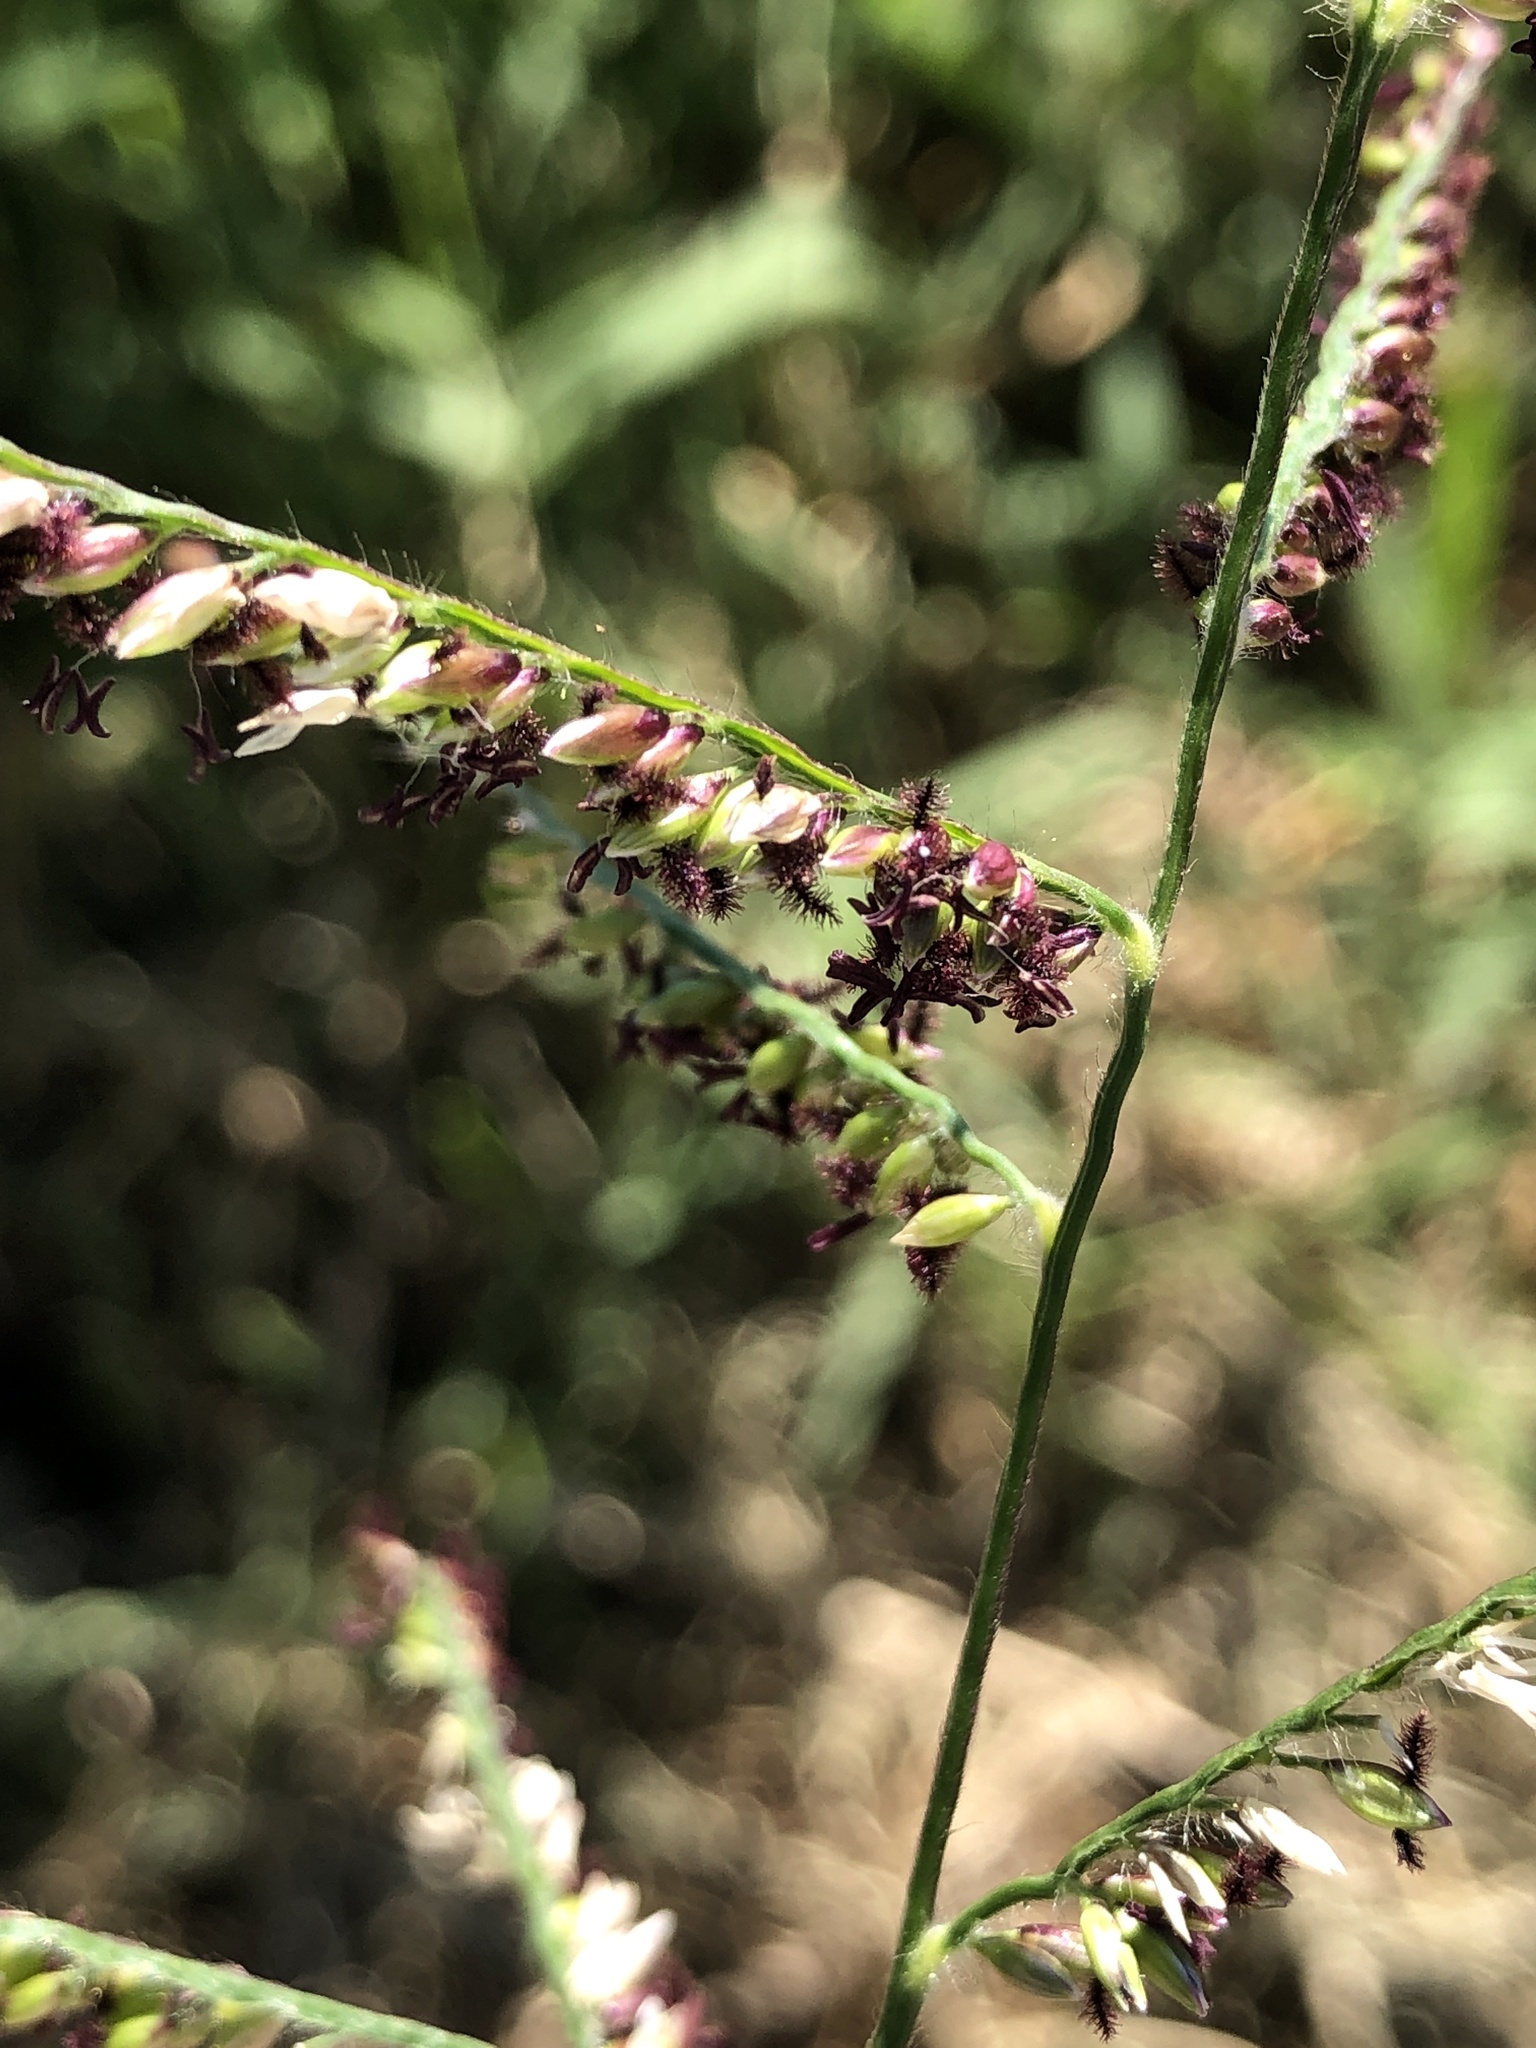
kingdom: Plantae
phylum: Tracheophyta
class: Liliopsida
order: Poales
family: Poaceae
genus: Urochloa
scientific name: Urochloa mutica
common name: Para grass
